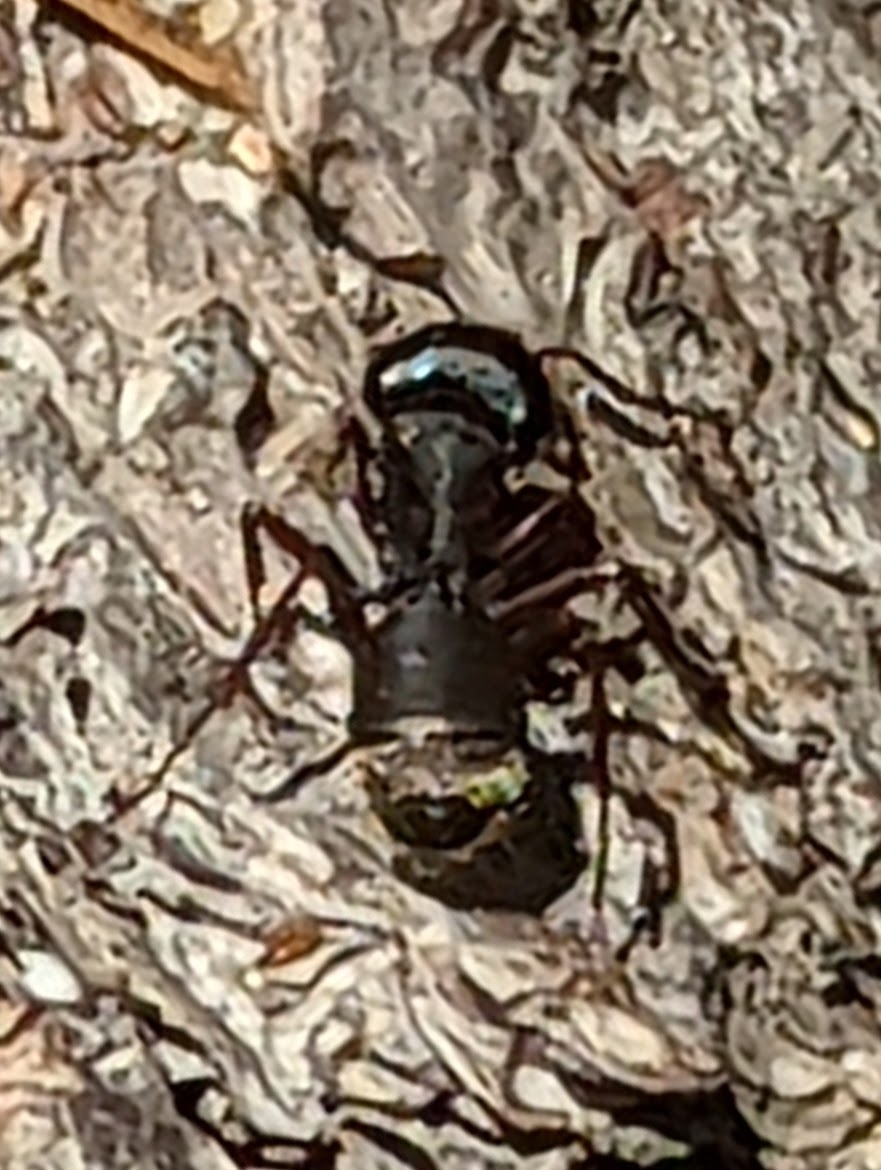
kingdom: Animalia
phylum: Arthropoda
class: Insecta
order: Hymenoptera
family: Formicidae
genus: Camponotus
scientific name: Camponotus modoc
